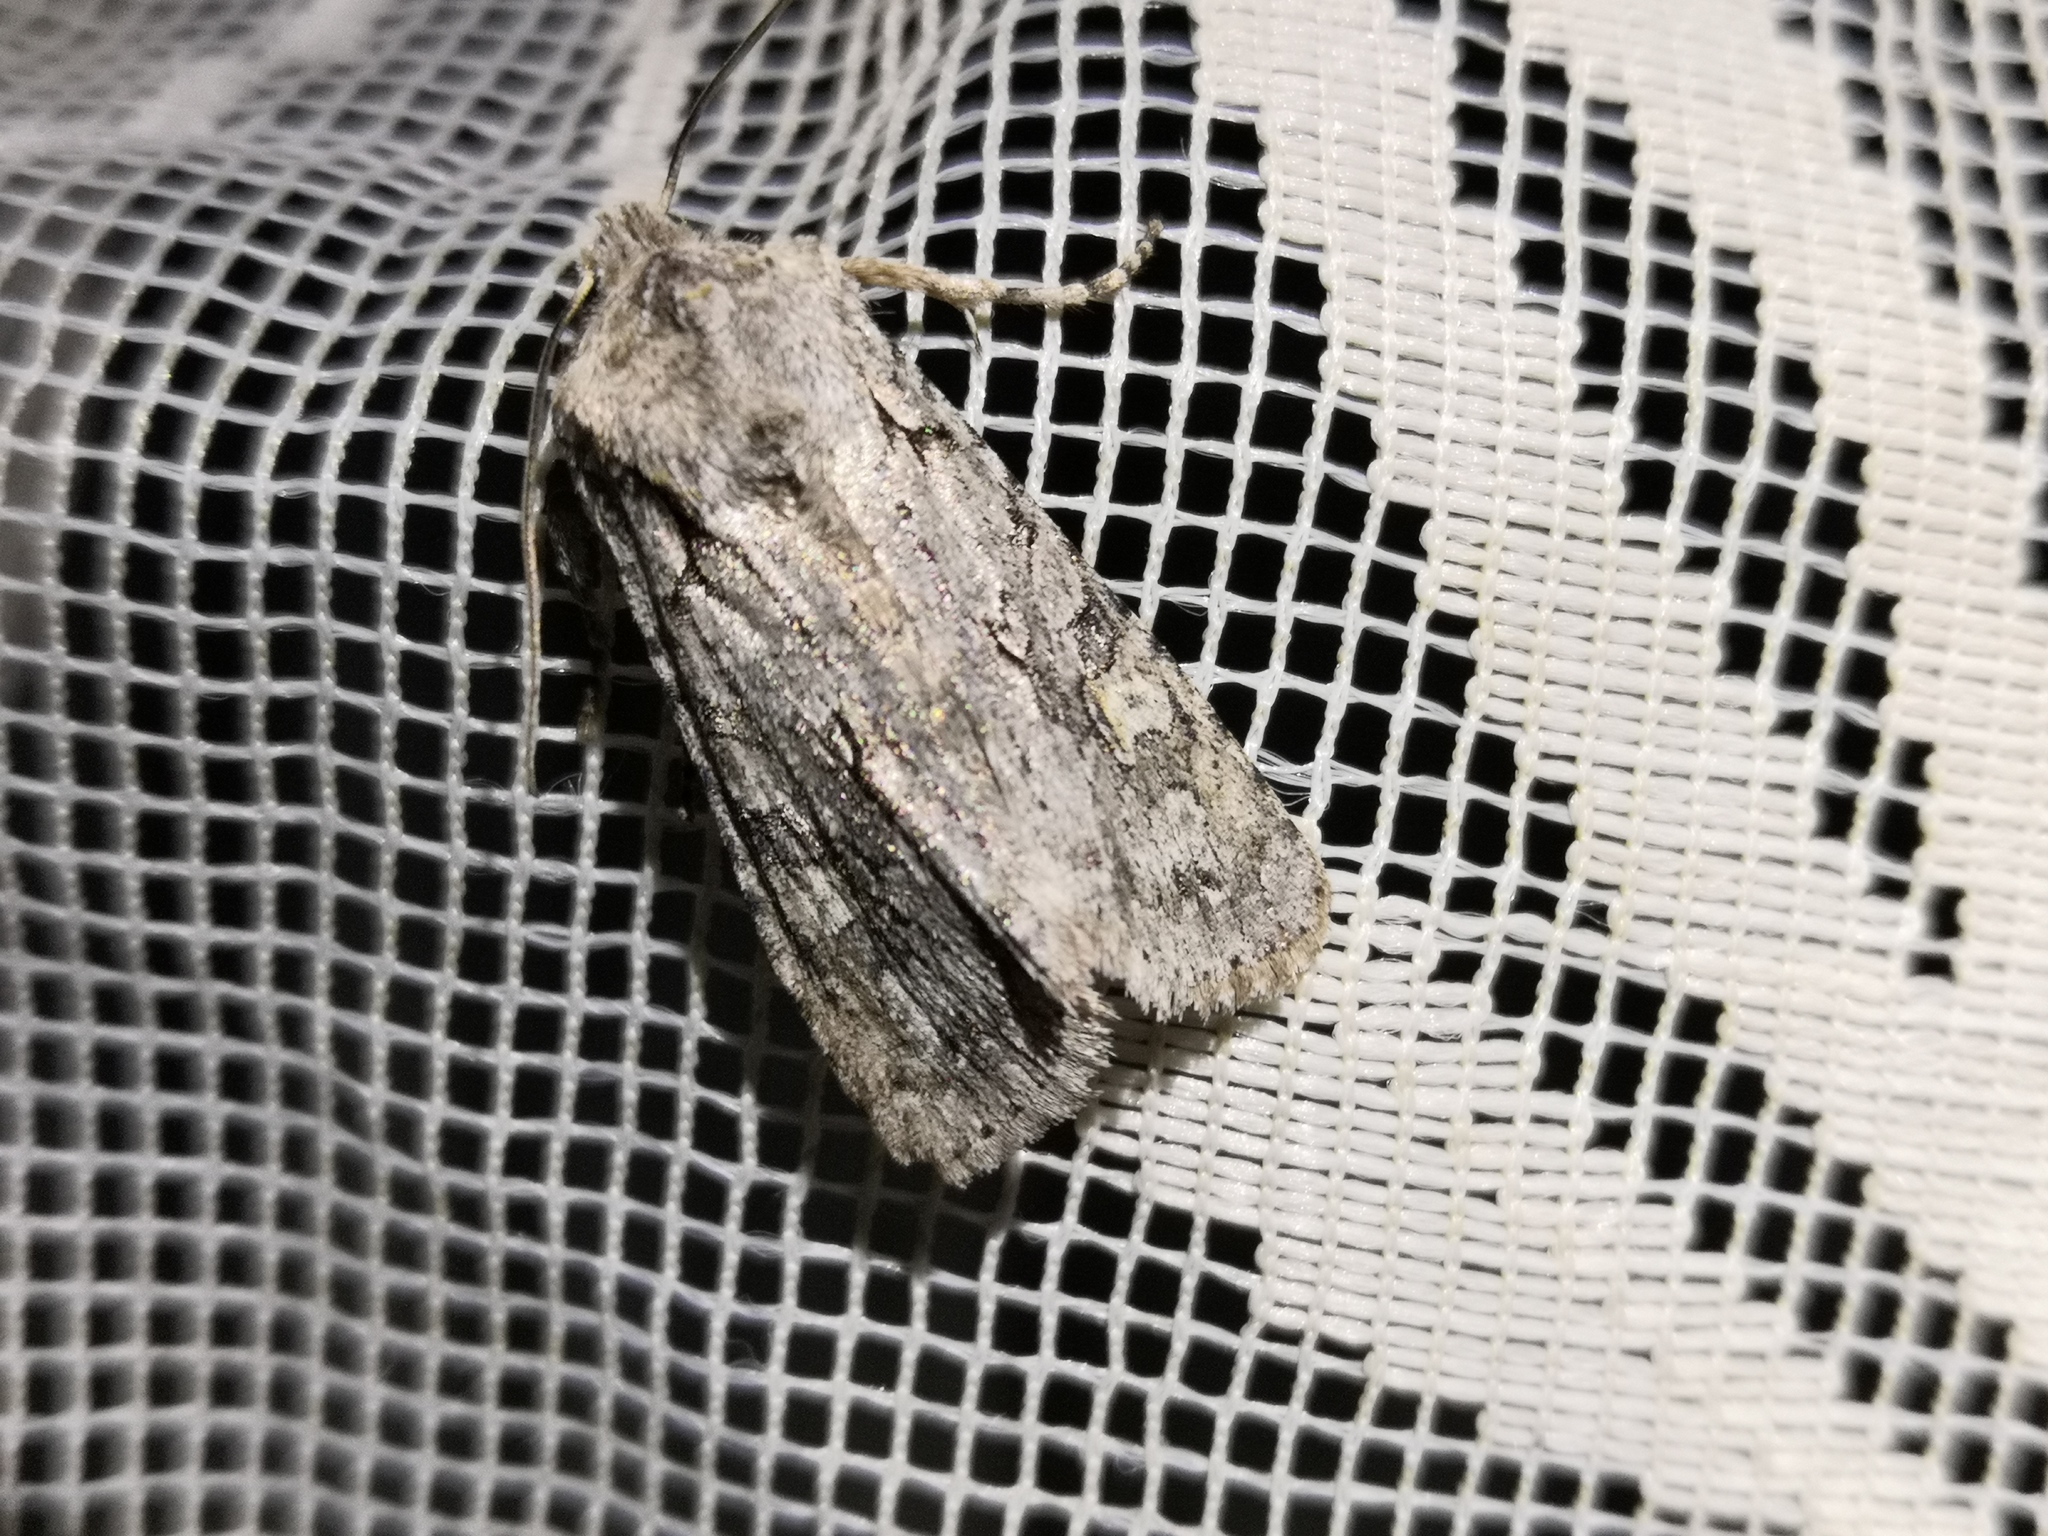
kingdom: Animalia
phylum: Arthropoda
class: Insecta
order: Lepidoptera
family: Noctuidae
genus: Lithophane
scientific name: Lithophane ornitopus
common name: Grey shoulder-knot
